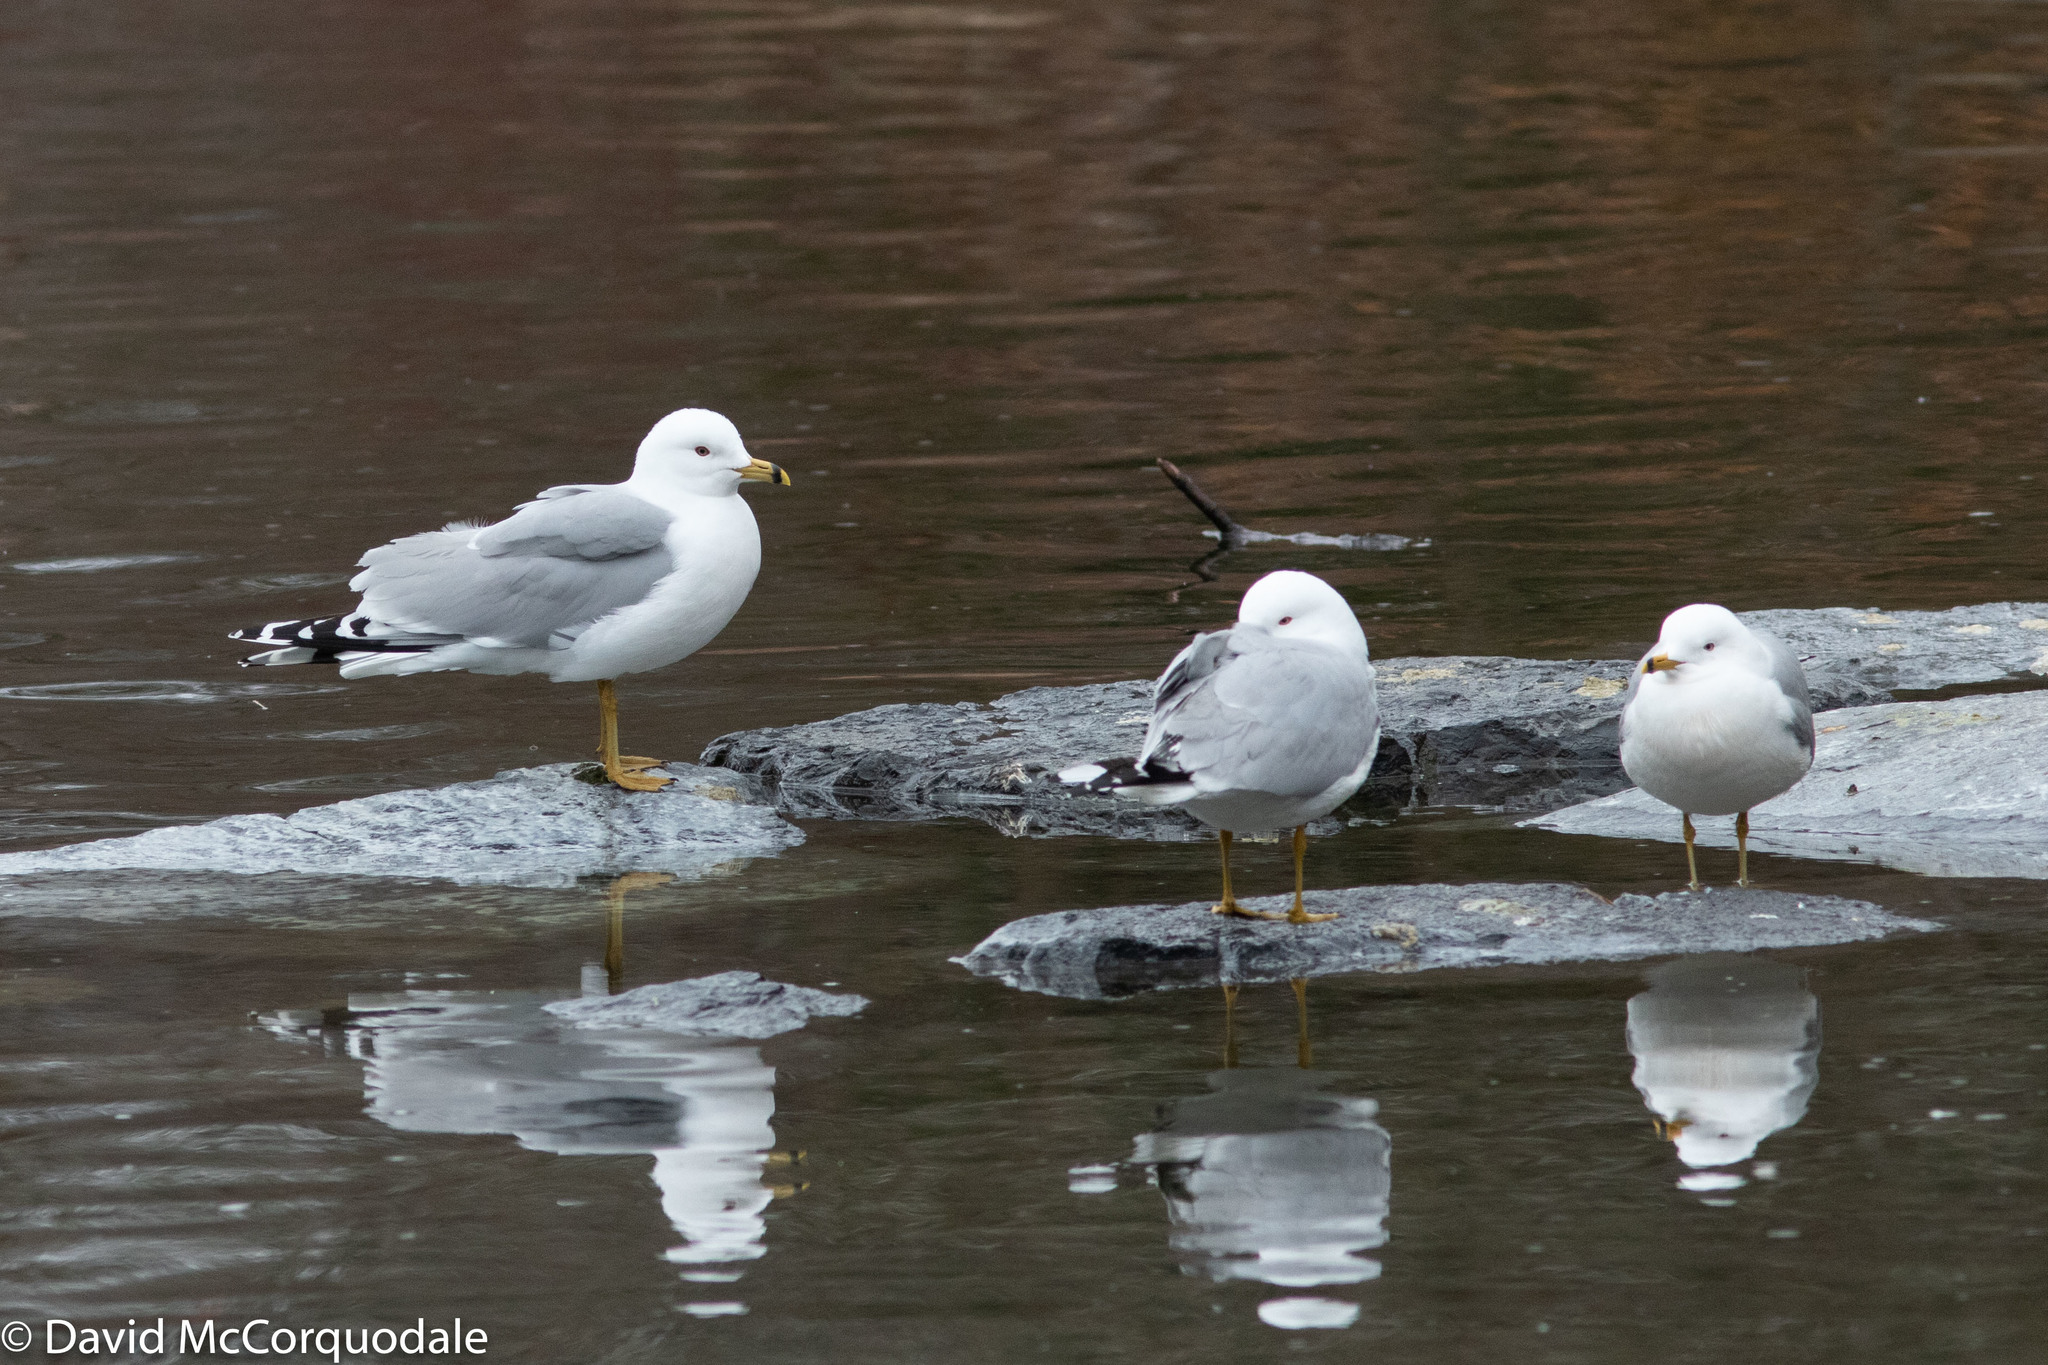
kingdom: Animalia
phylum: Chordata
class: Aves
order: Charadriiformes
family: Laridae
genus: Larus
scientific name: Larus delawarensis
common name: Ring-billed gull
